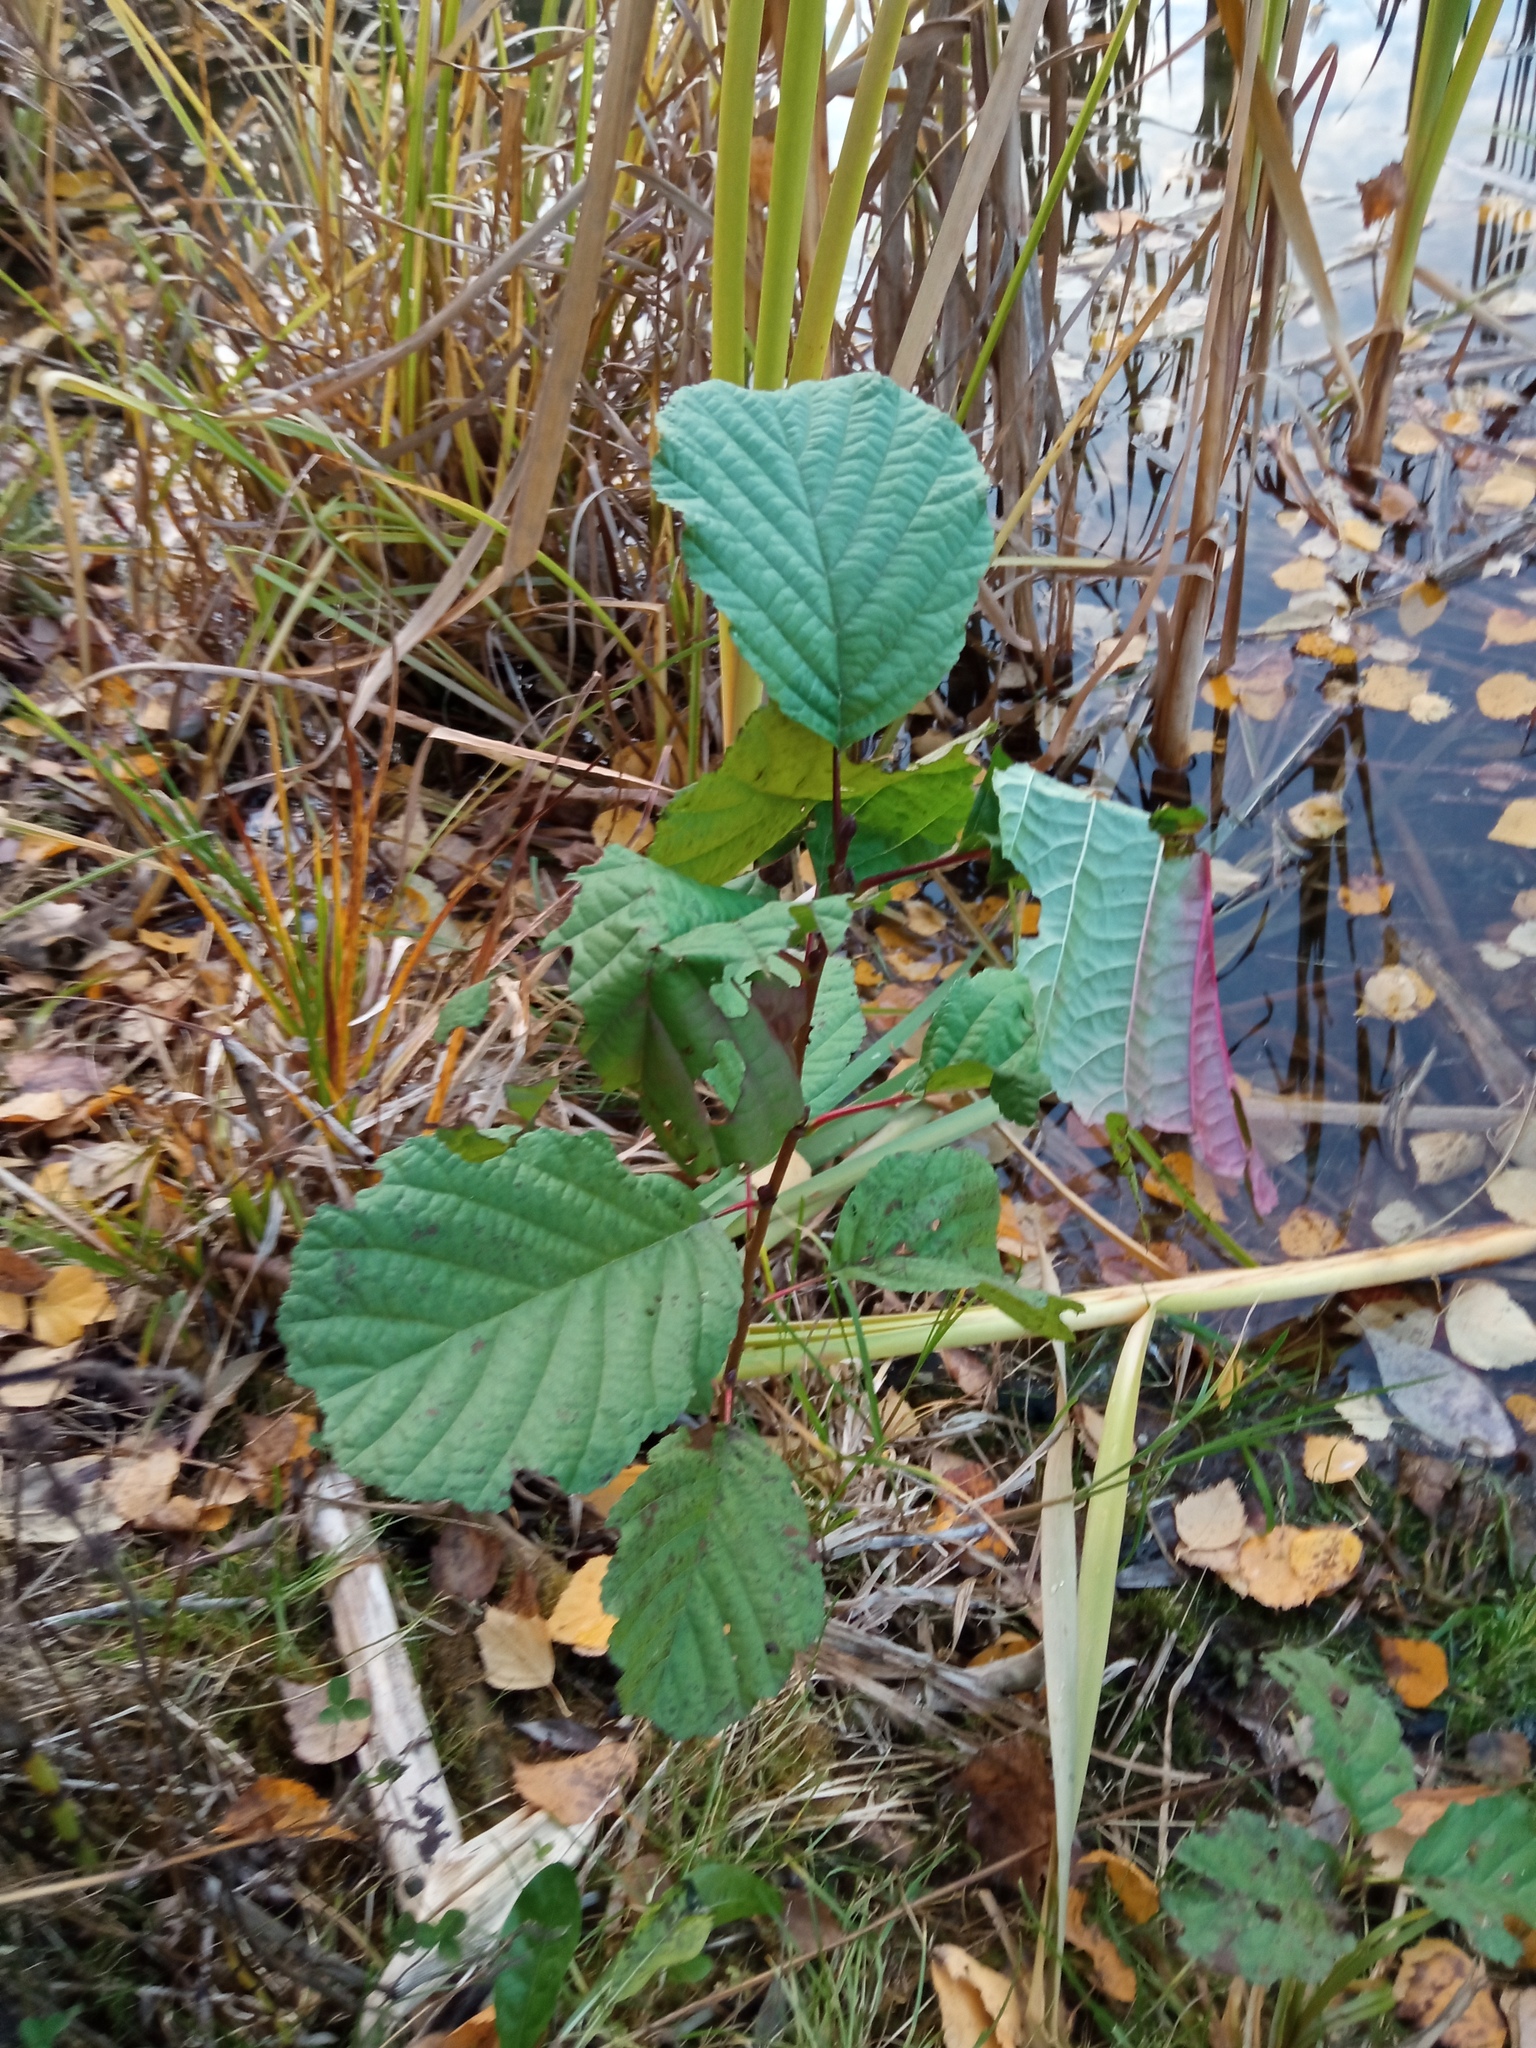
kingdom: Plantae
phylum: Tracheophyta
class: Magnoliopsida
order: Fagales
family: Betulaceae
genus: Alnus
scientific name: Alnus glutinosa
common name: Black alder
